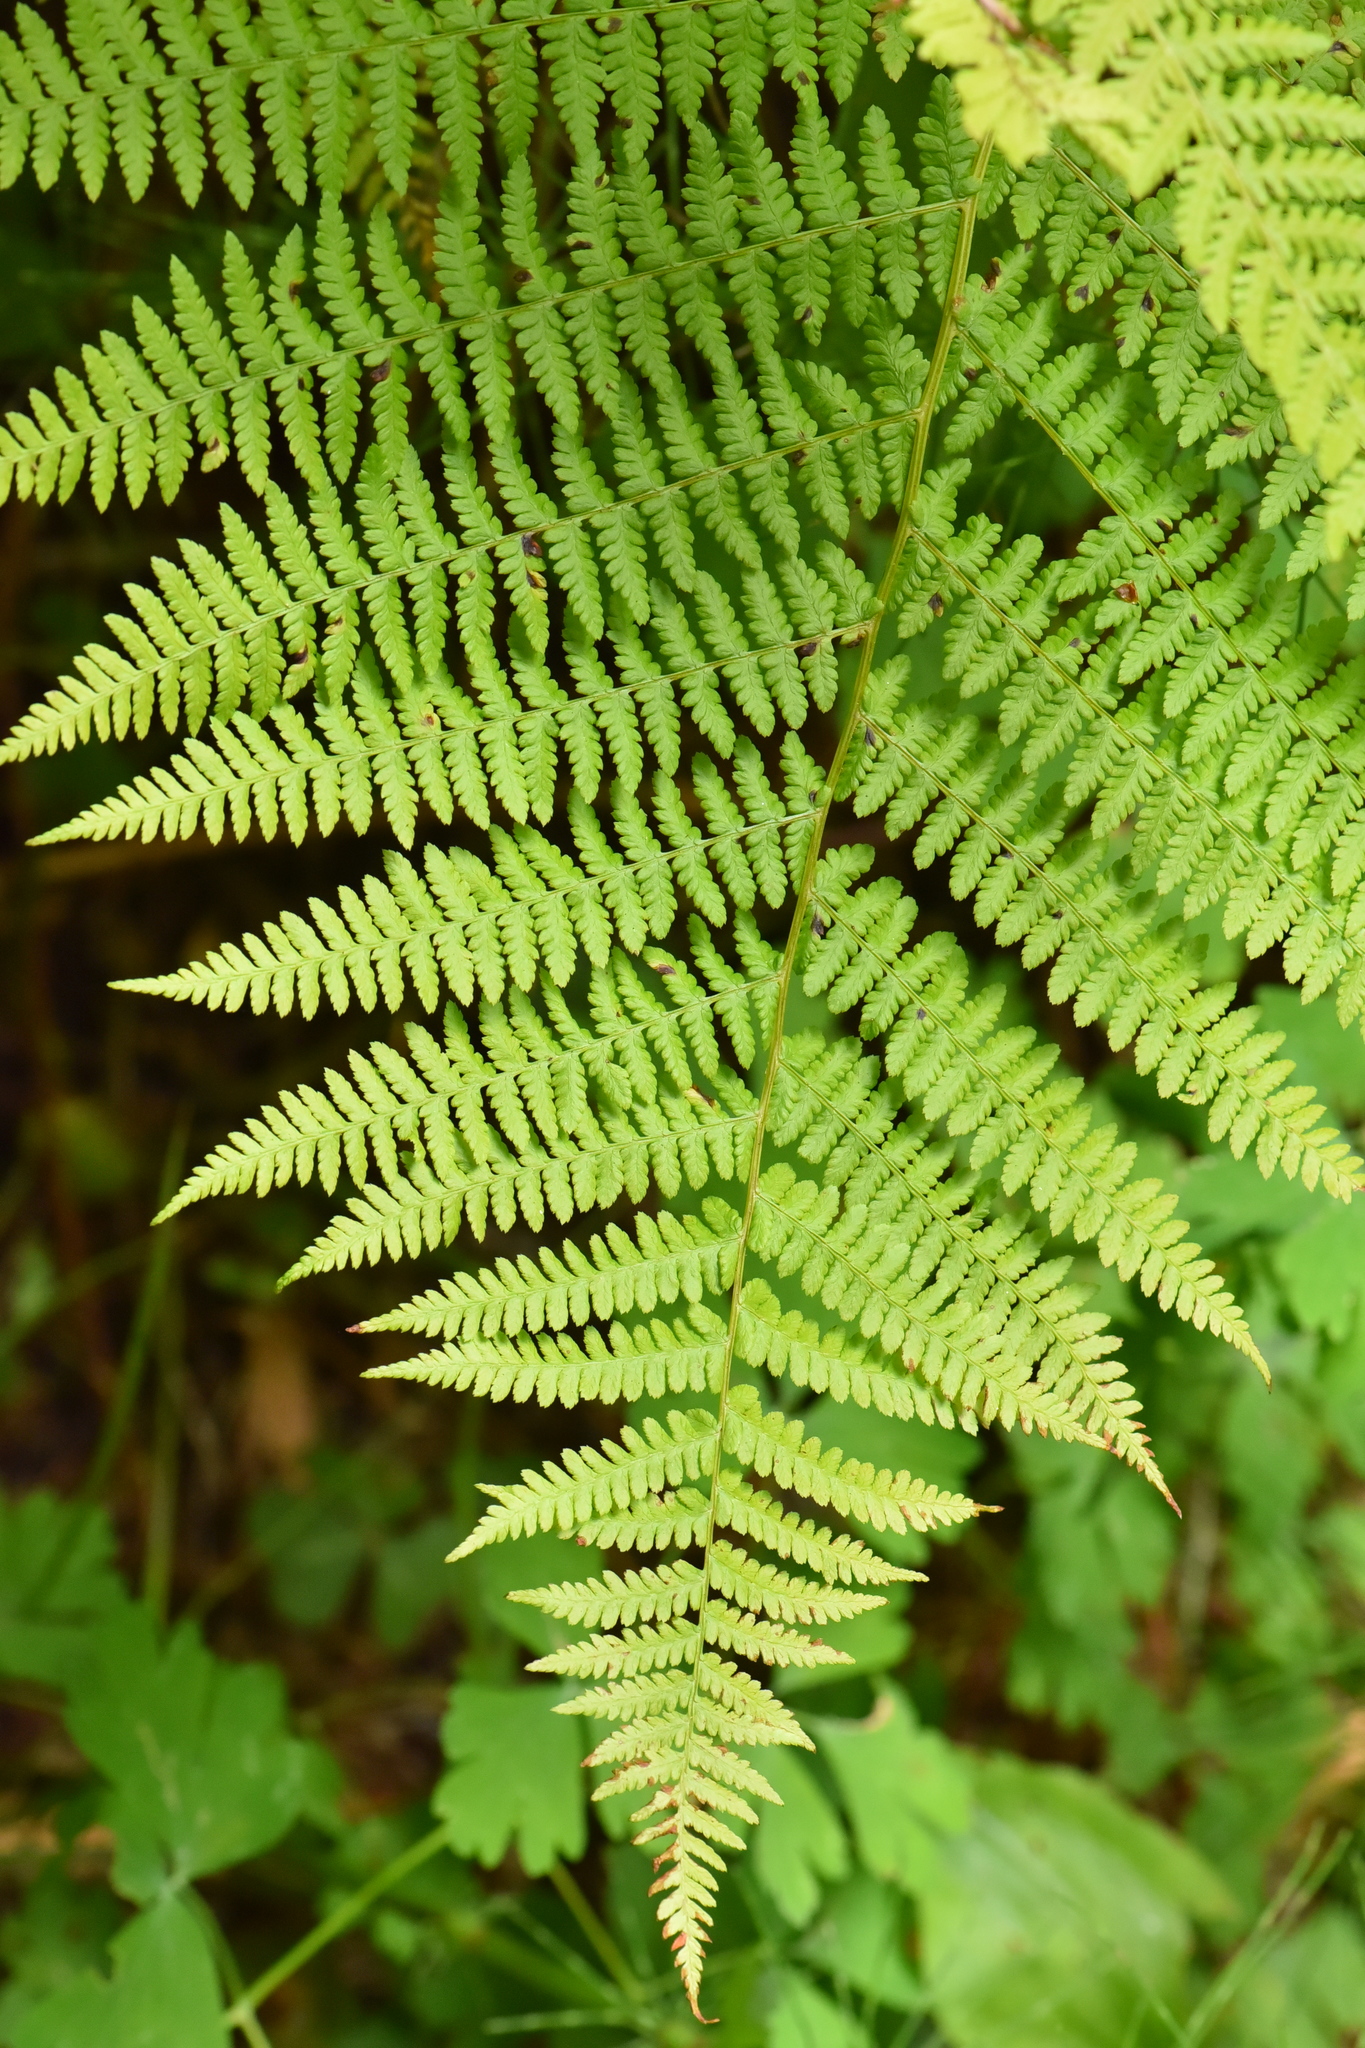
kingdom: Plantae
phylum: Tracheophyta
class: Polypodiopsida
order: Polypodiales
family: Athyriaceae
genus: Athyrium
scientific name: Athyrium filix-femina
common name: Lady fern
